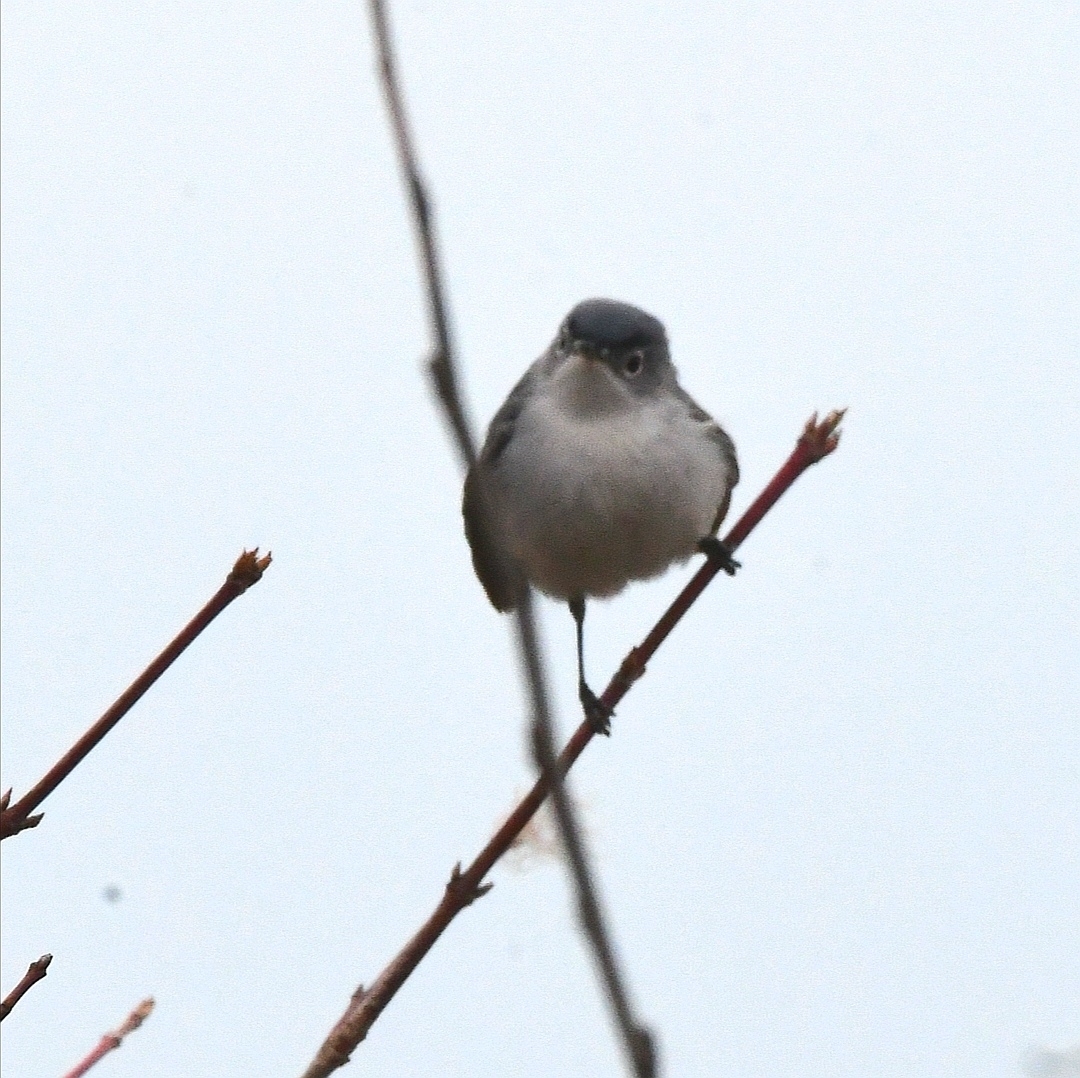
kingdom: Animalia
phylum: Chordata
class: Aves
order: Passeriformes
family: Polioptilidae
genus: Polioptila
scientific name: Polioptila caerulea
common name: Blue-gray gnatcatcher
